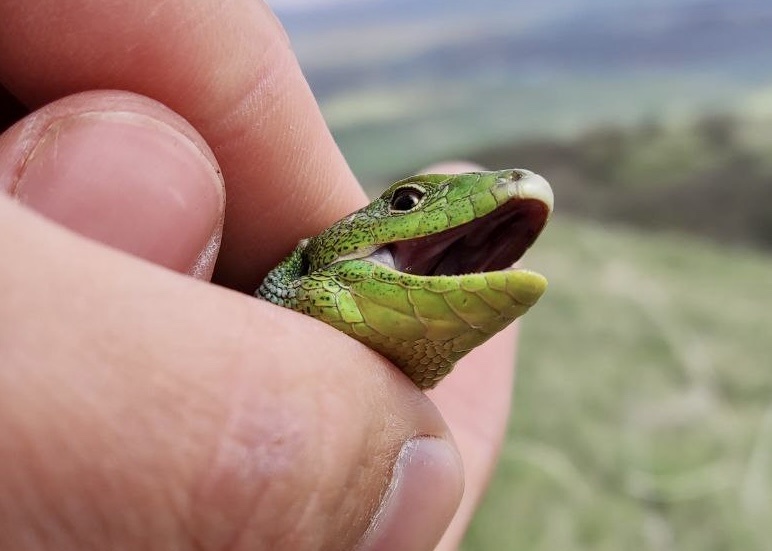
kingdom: Animalia
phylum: Chordata
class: Squamata
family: Lacertidae
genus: Lacerta
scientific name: Lacerta media
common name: Medium lizard
